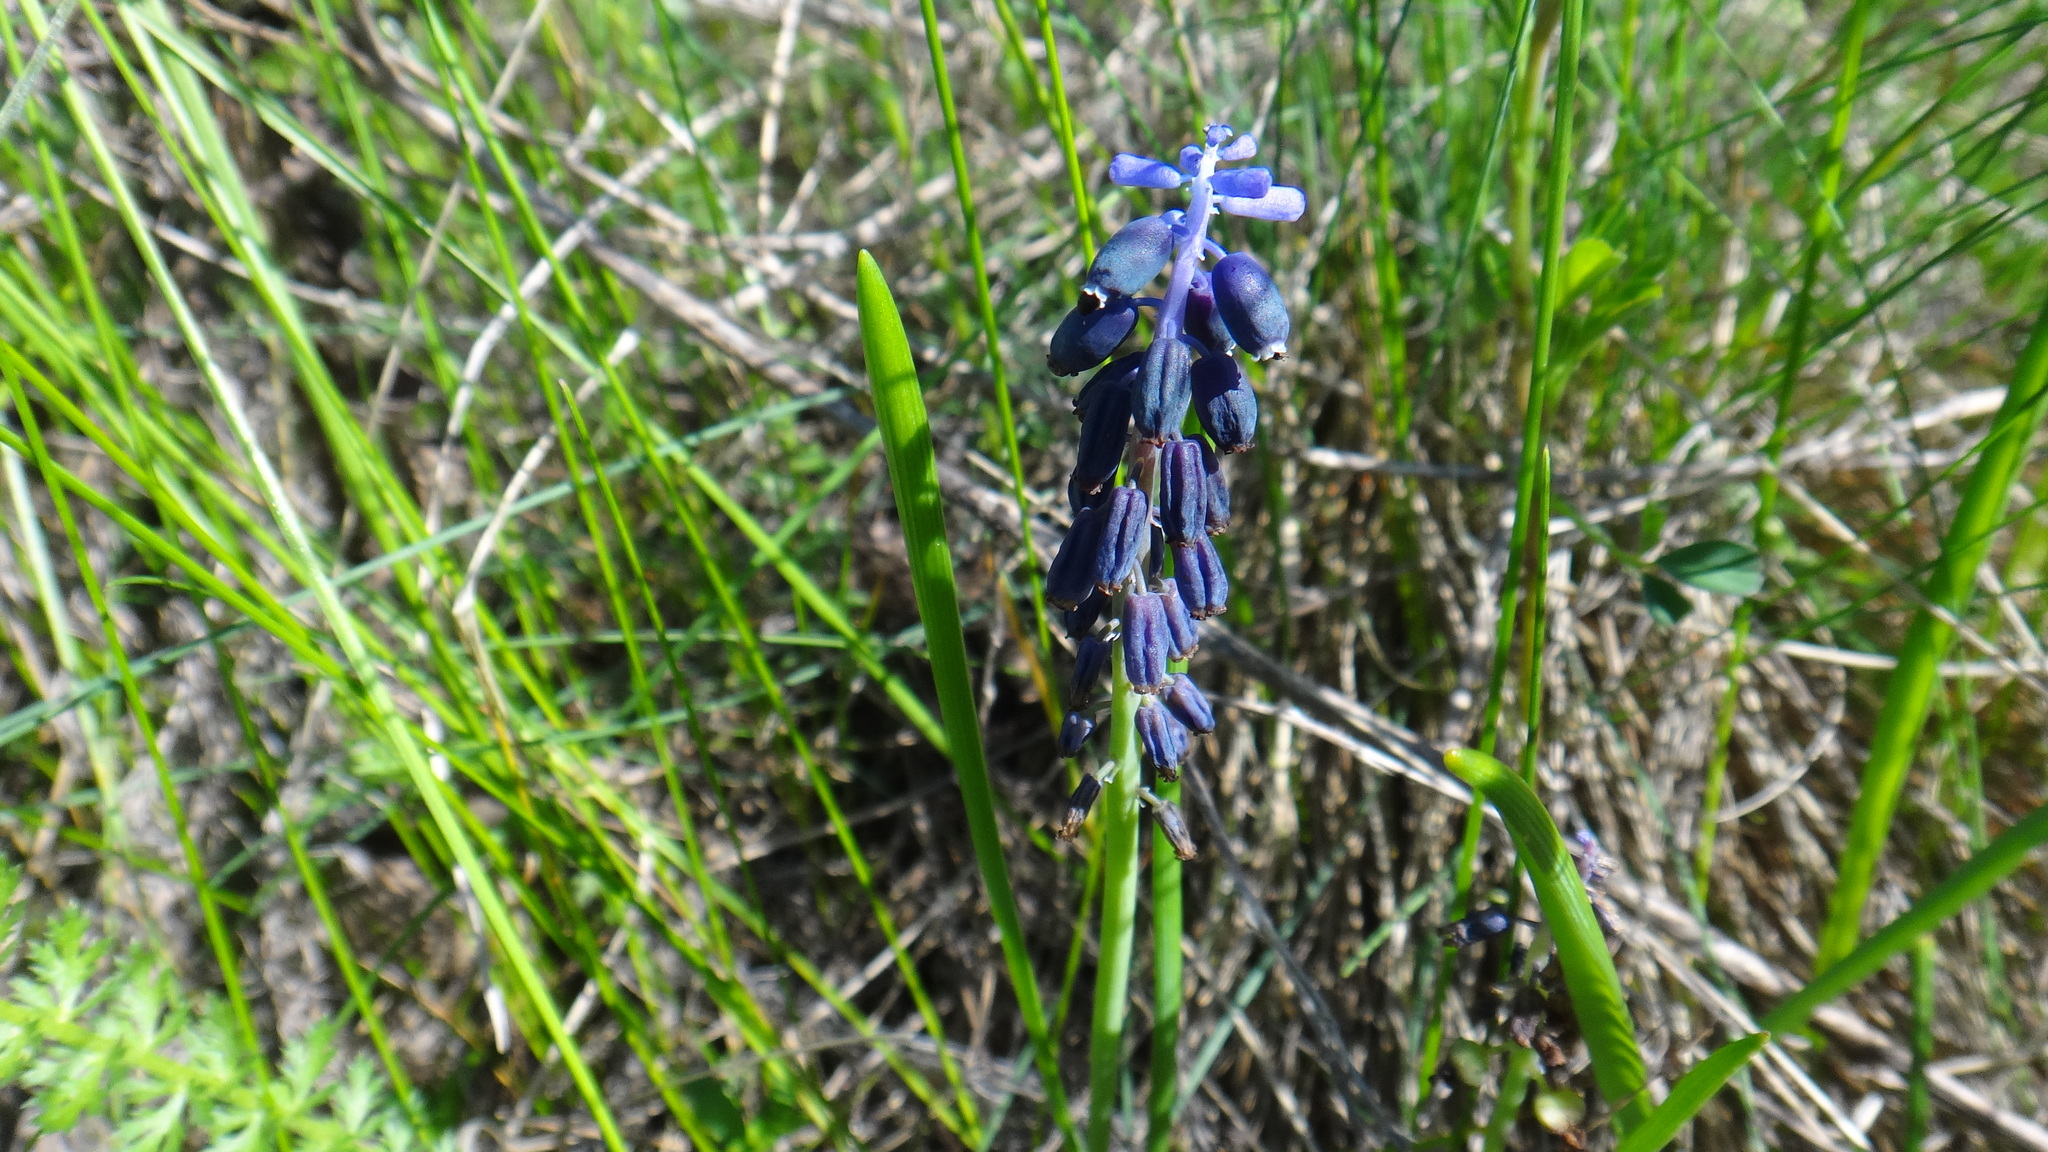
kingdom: Plantae
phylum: Tracheophyta
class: Liliopsida
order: Asparagales
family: Asparagaceae
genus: Muscari
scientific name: Muscari neglectum
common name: Grape-hyacinth
